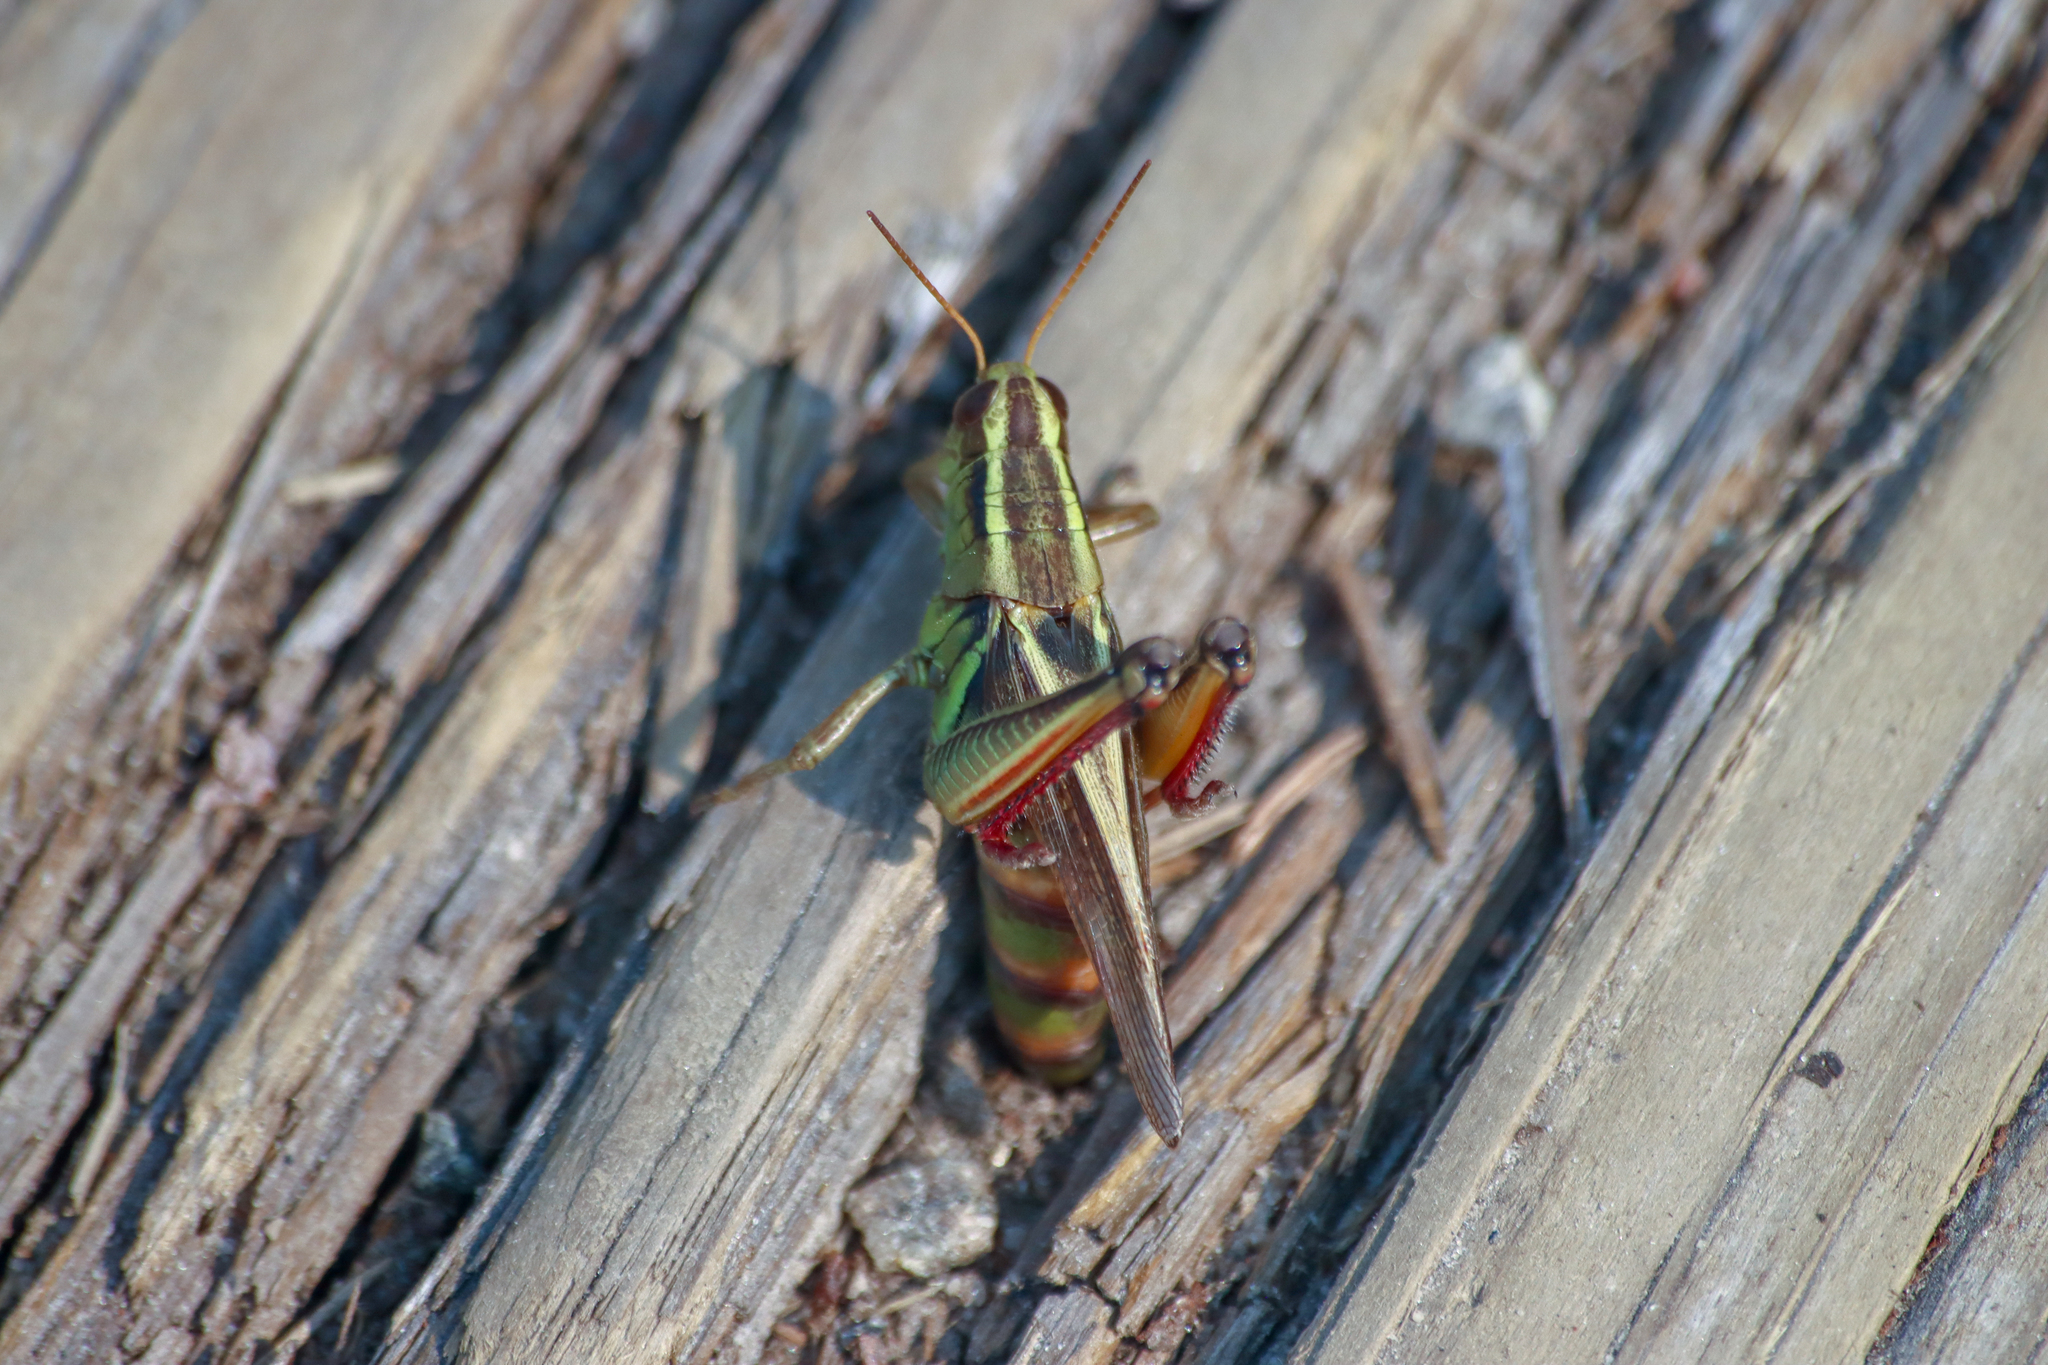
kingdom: Animalia
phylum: Arthropoda
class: Insecta
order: Orthoptera
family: Acrididae
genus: Melanoplus
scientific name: Melanoplus bivittatus
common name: Two-striped grasshopper
